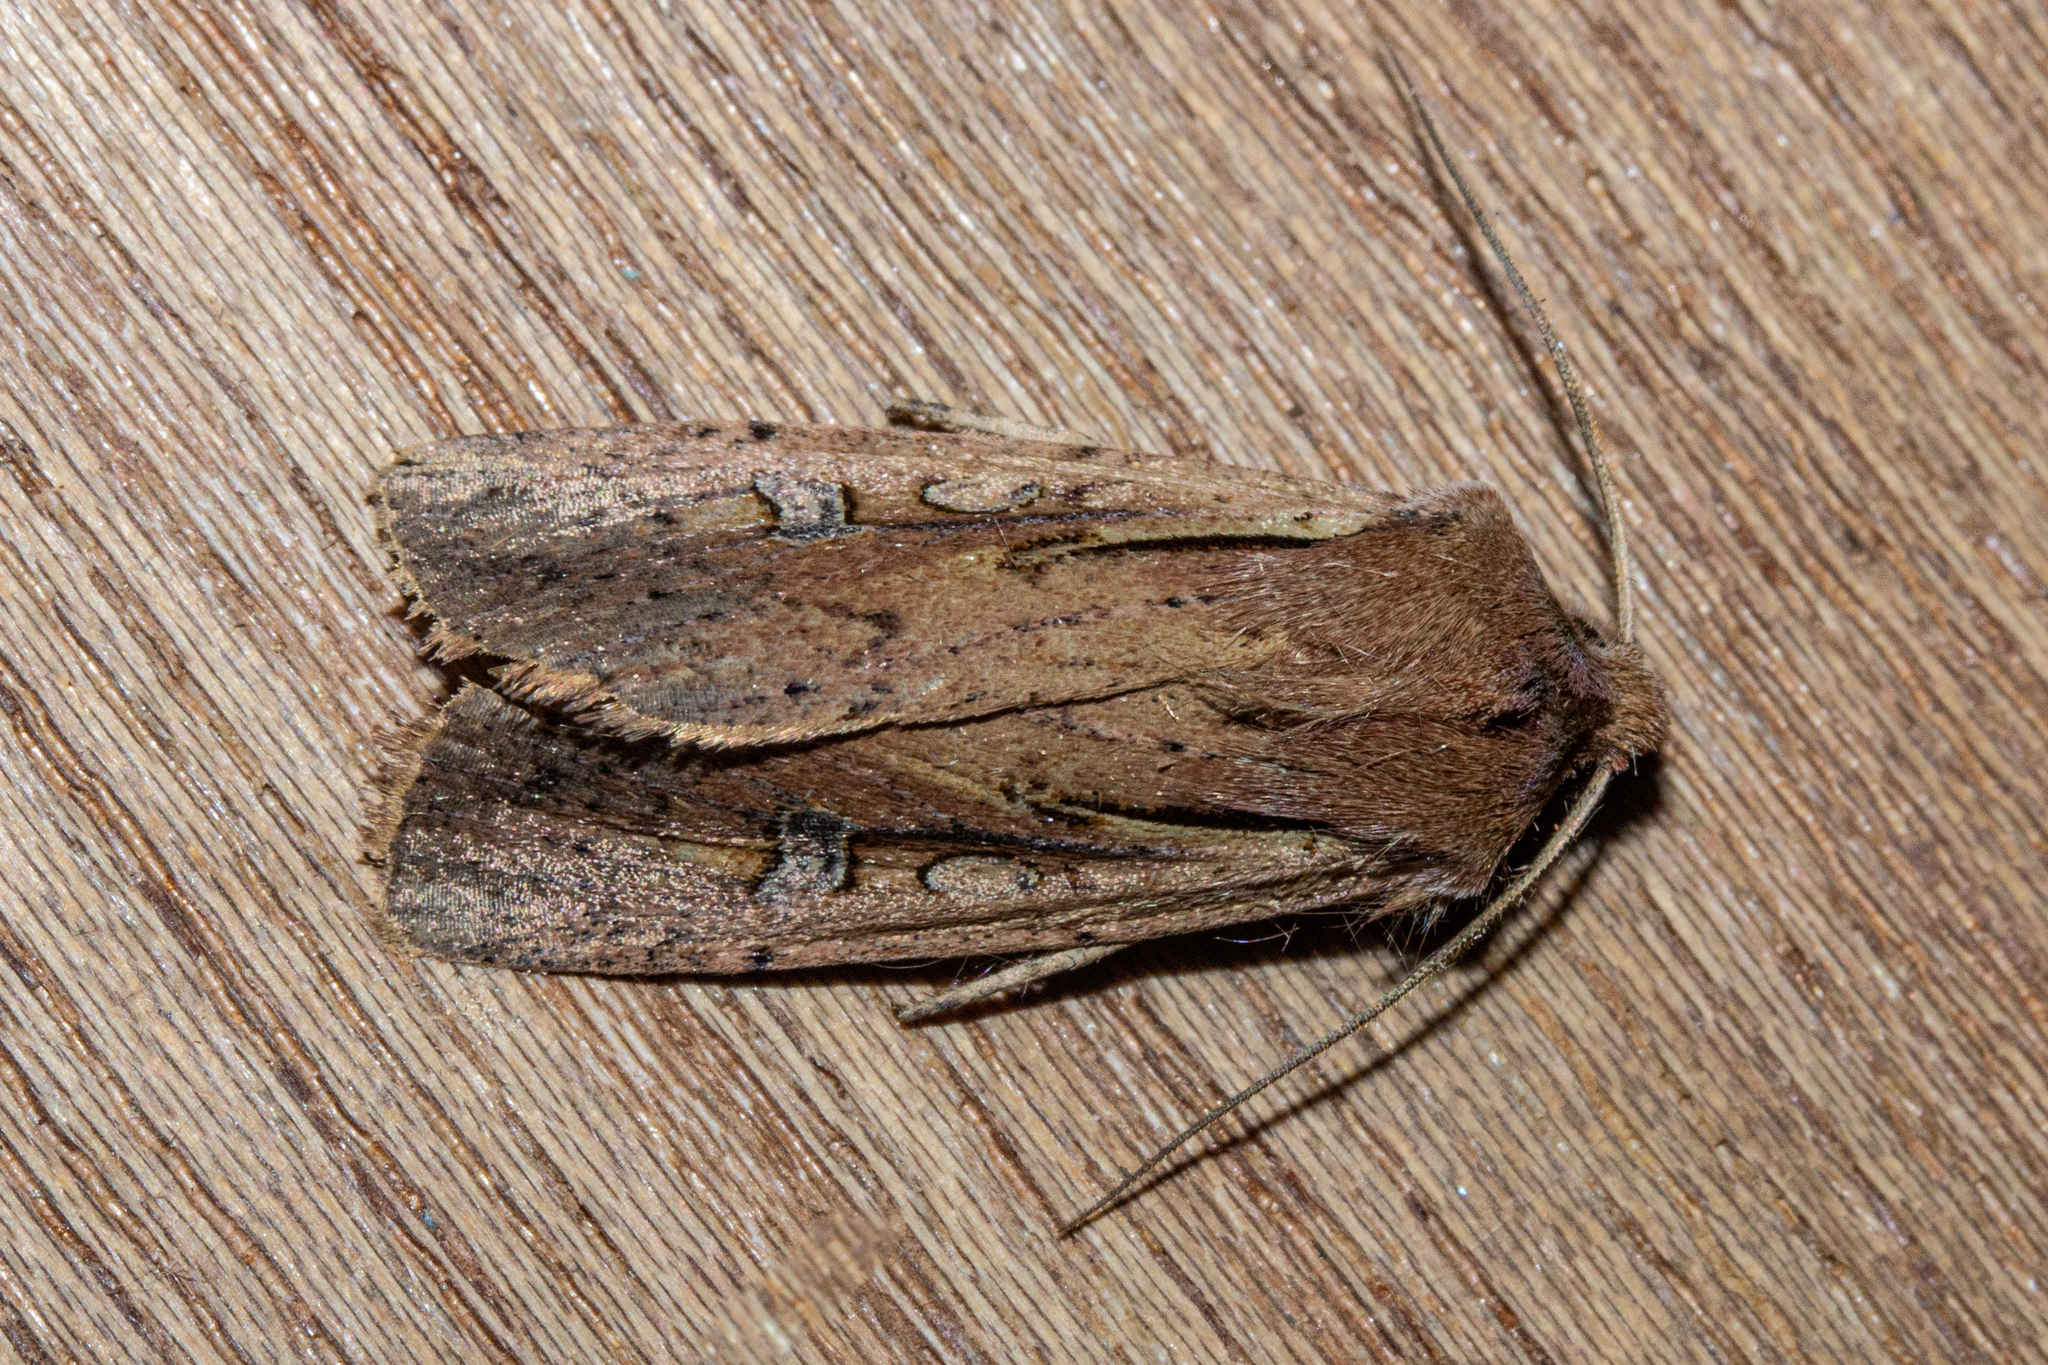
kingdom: Animalia
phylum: Arthropoda
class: Insecta
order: Lepidoptera
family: Noctuidae
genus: Ichneutica
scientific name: Ichneutica atristriga
